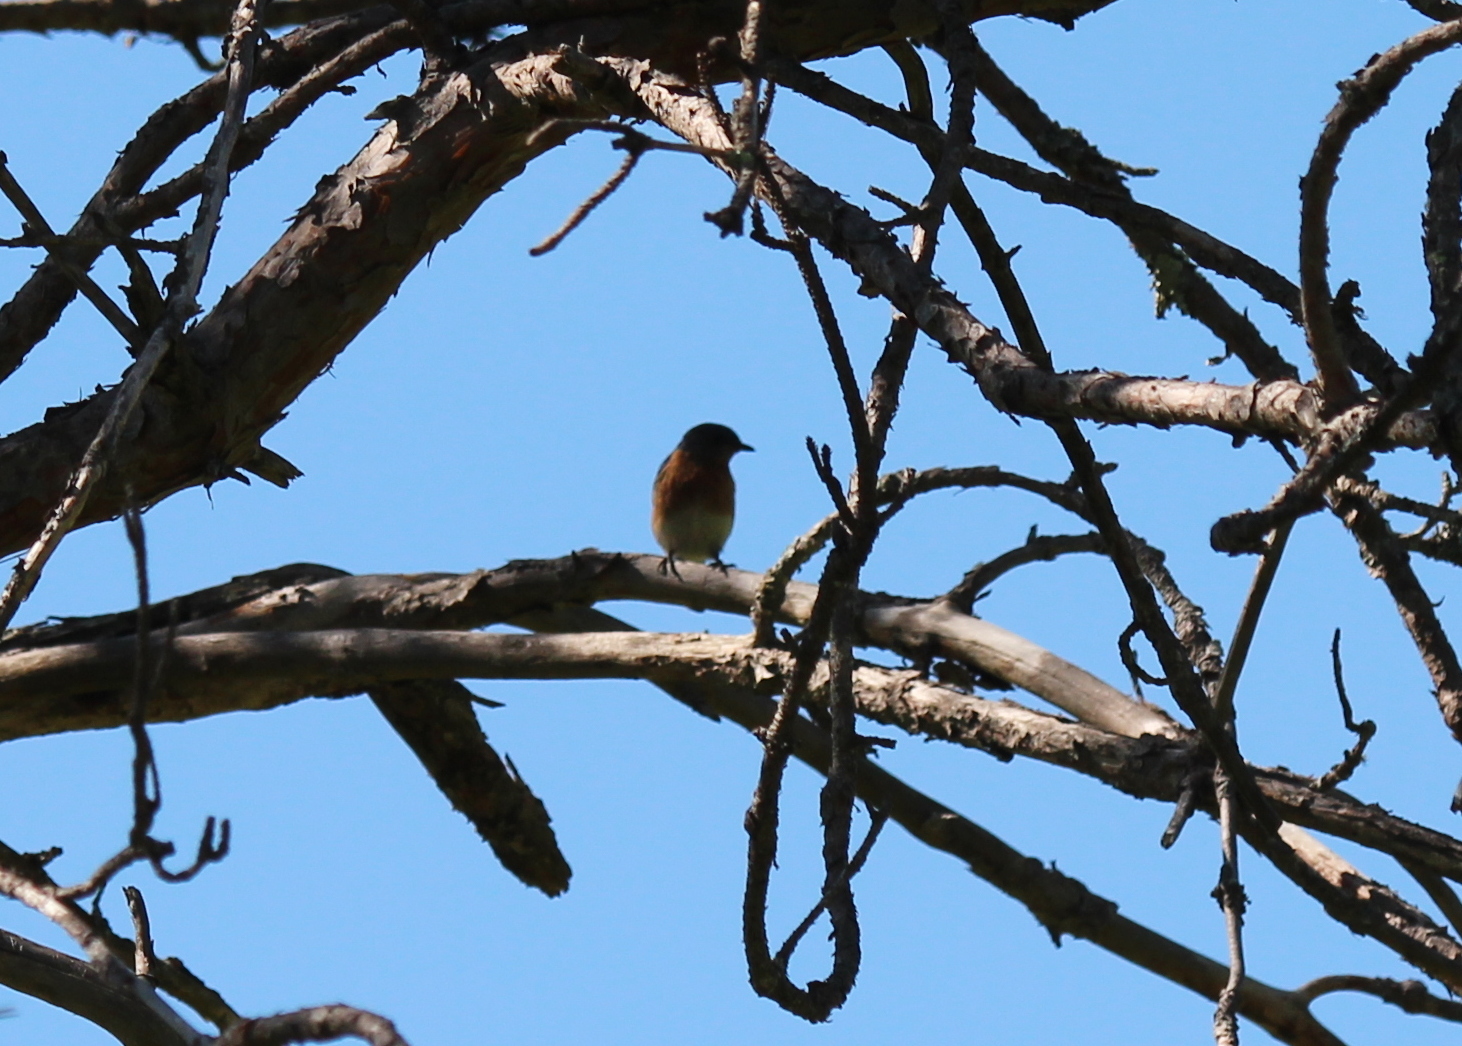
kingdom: Animalia
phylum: Chordata
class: Aves
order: Passeriformes
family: Turdidae
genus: Sialia
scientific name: Sialia sialis
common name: Eastern bluebird
